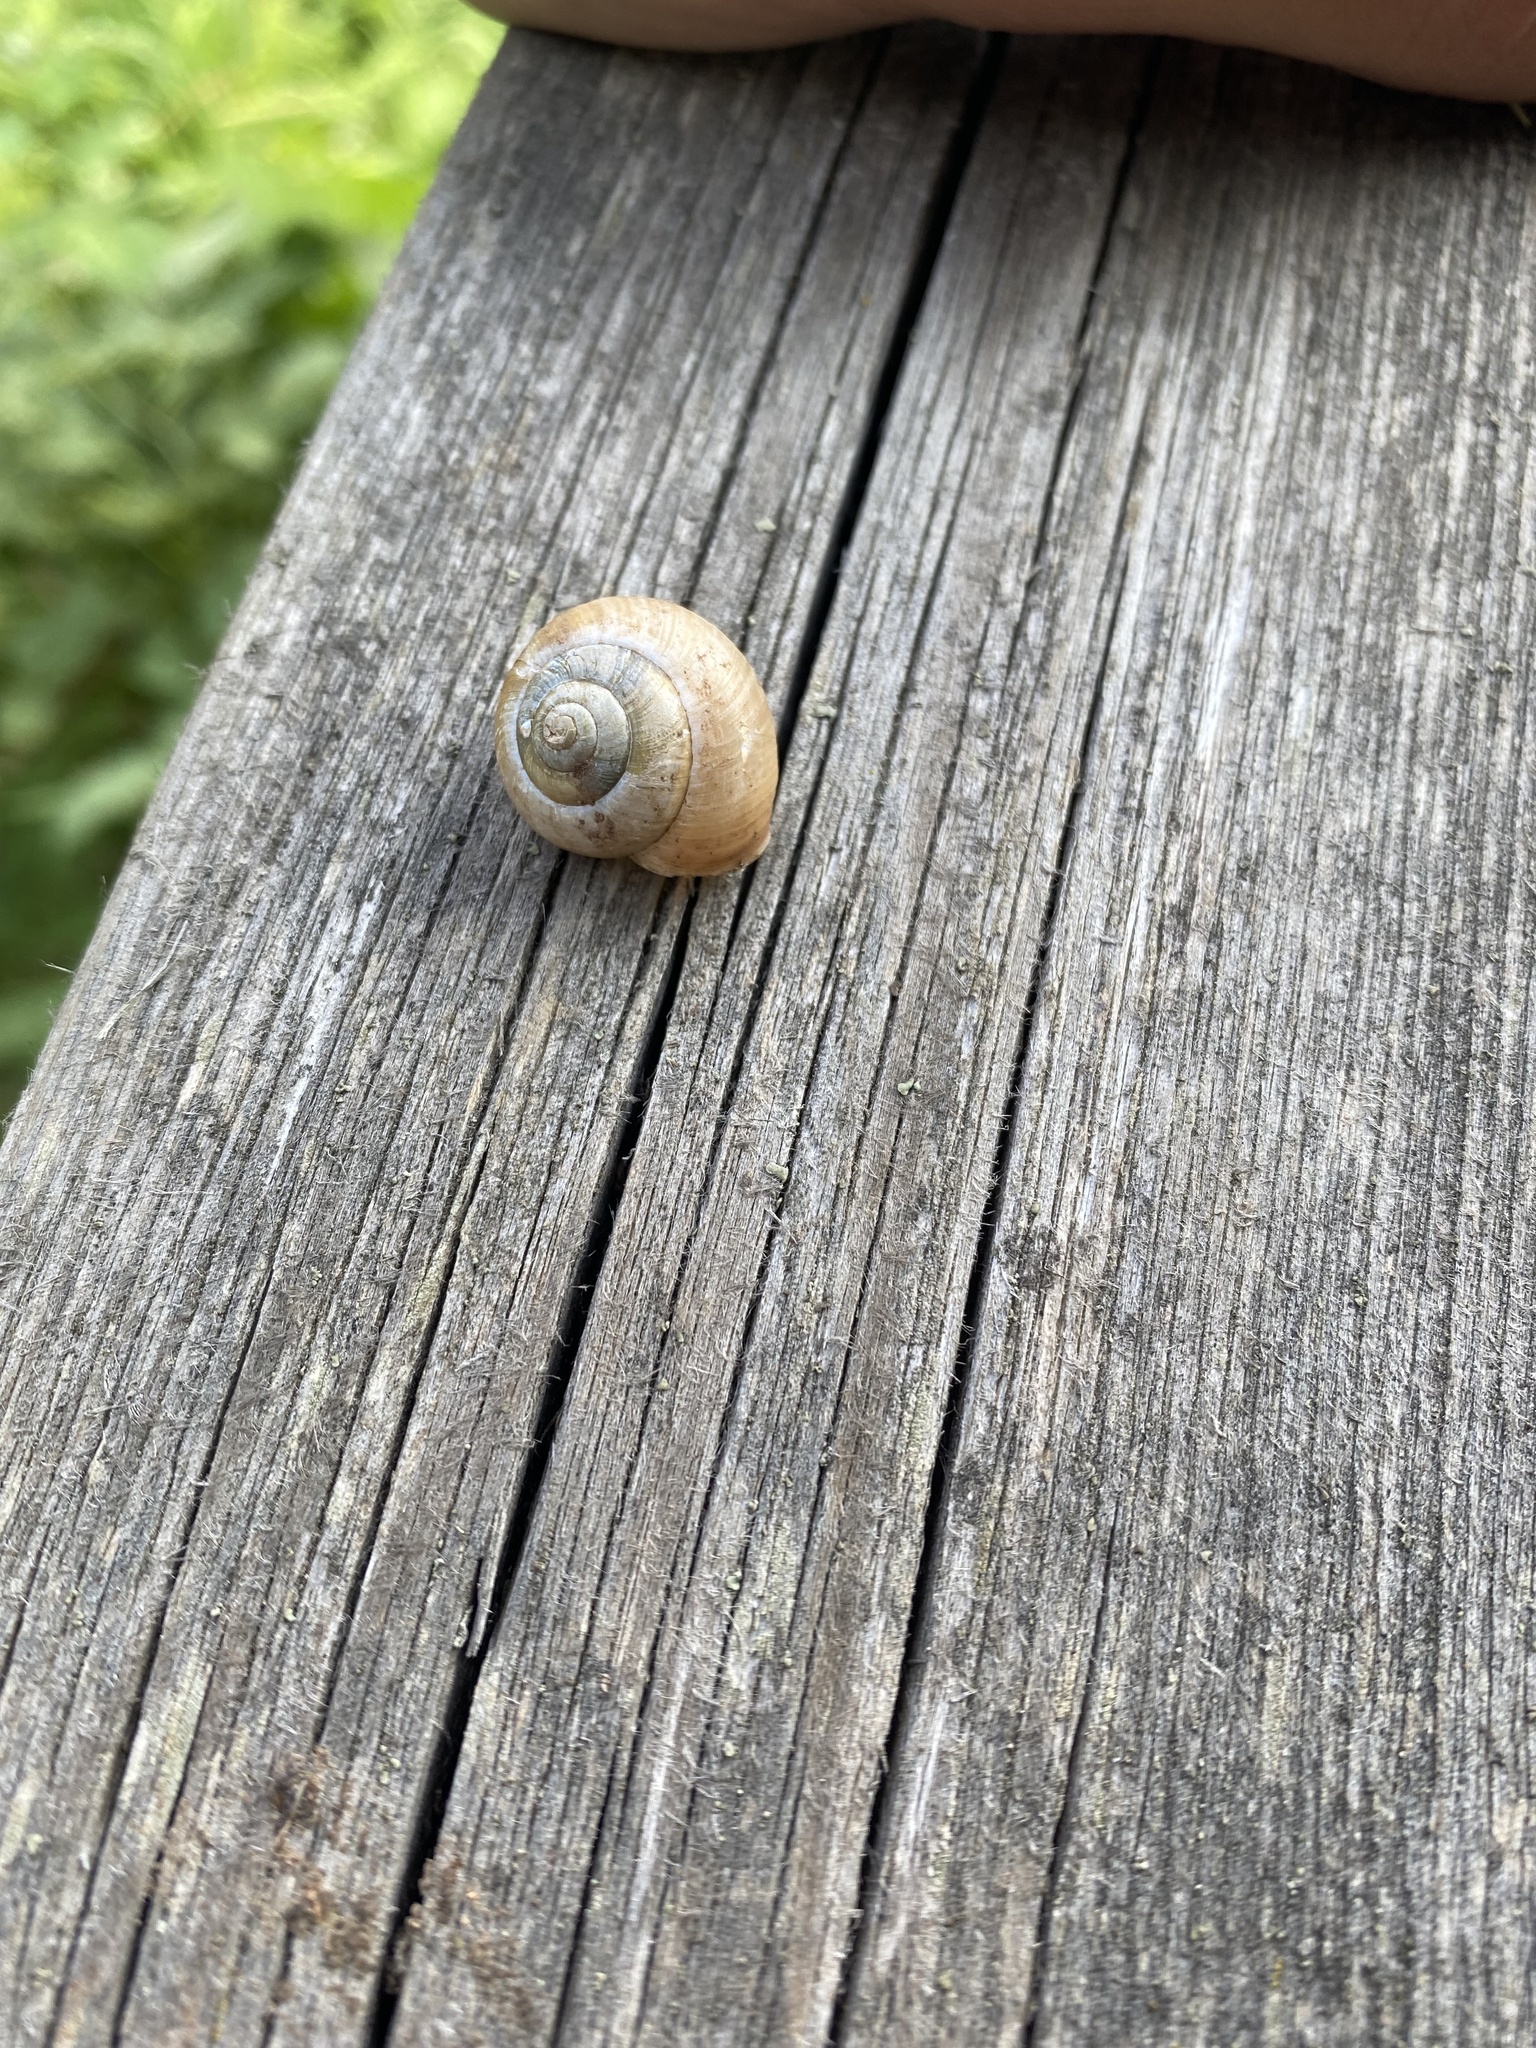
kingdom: Animalia
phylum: Mollusca
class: Gastropoda
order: Stylommatophora
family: Camaenidae
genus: Fruticicola
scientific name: Fruticicola fruticum
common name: Bush snail
